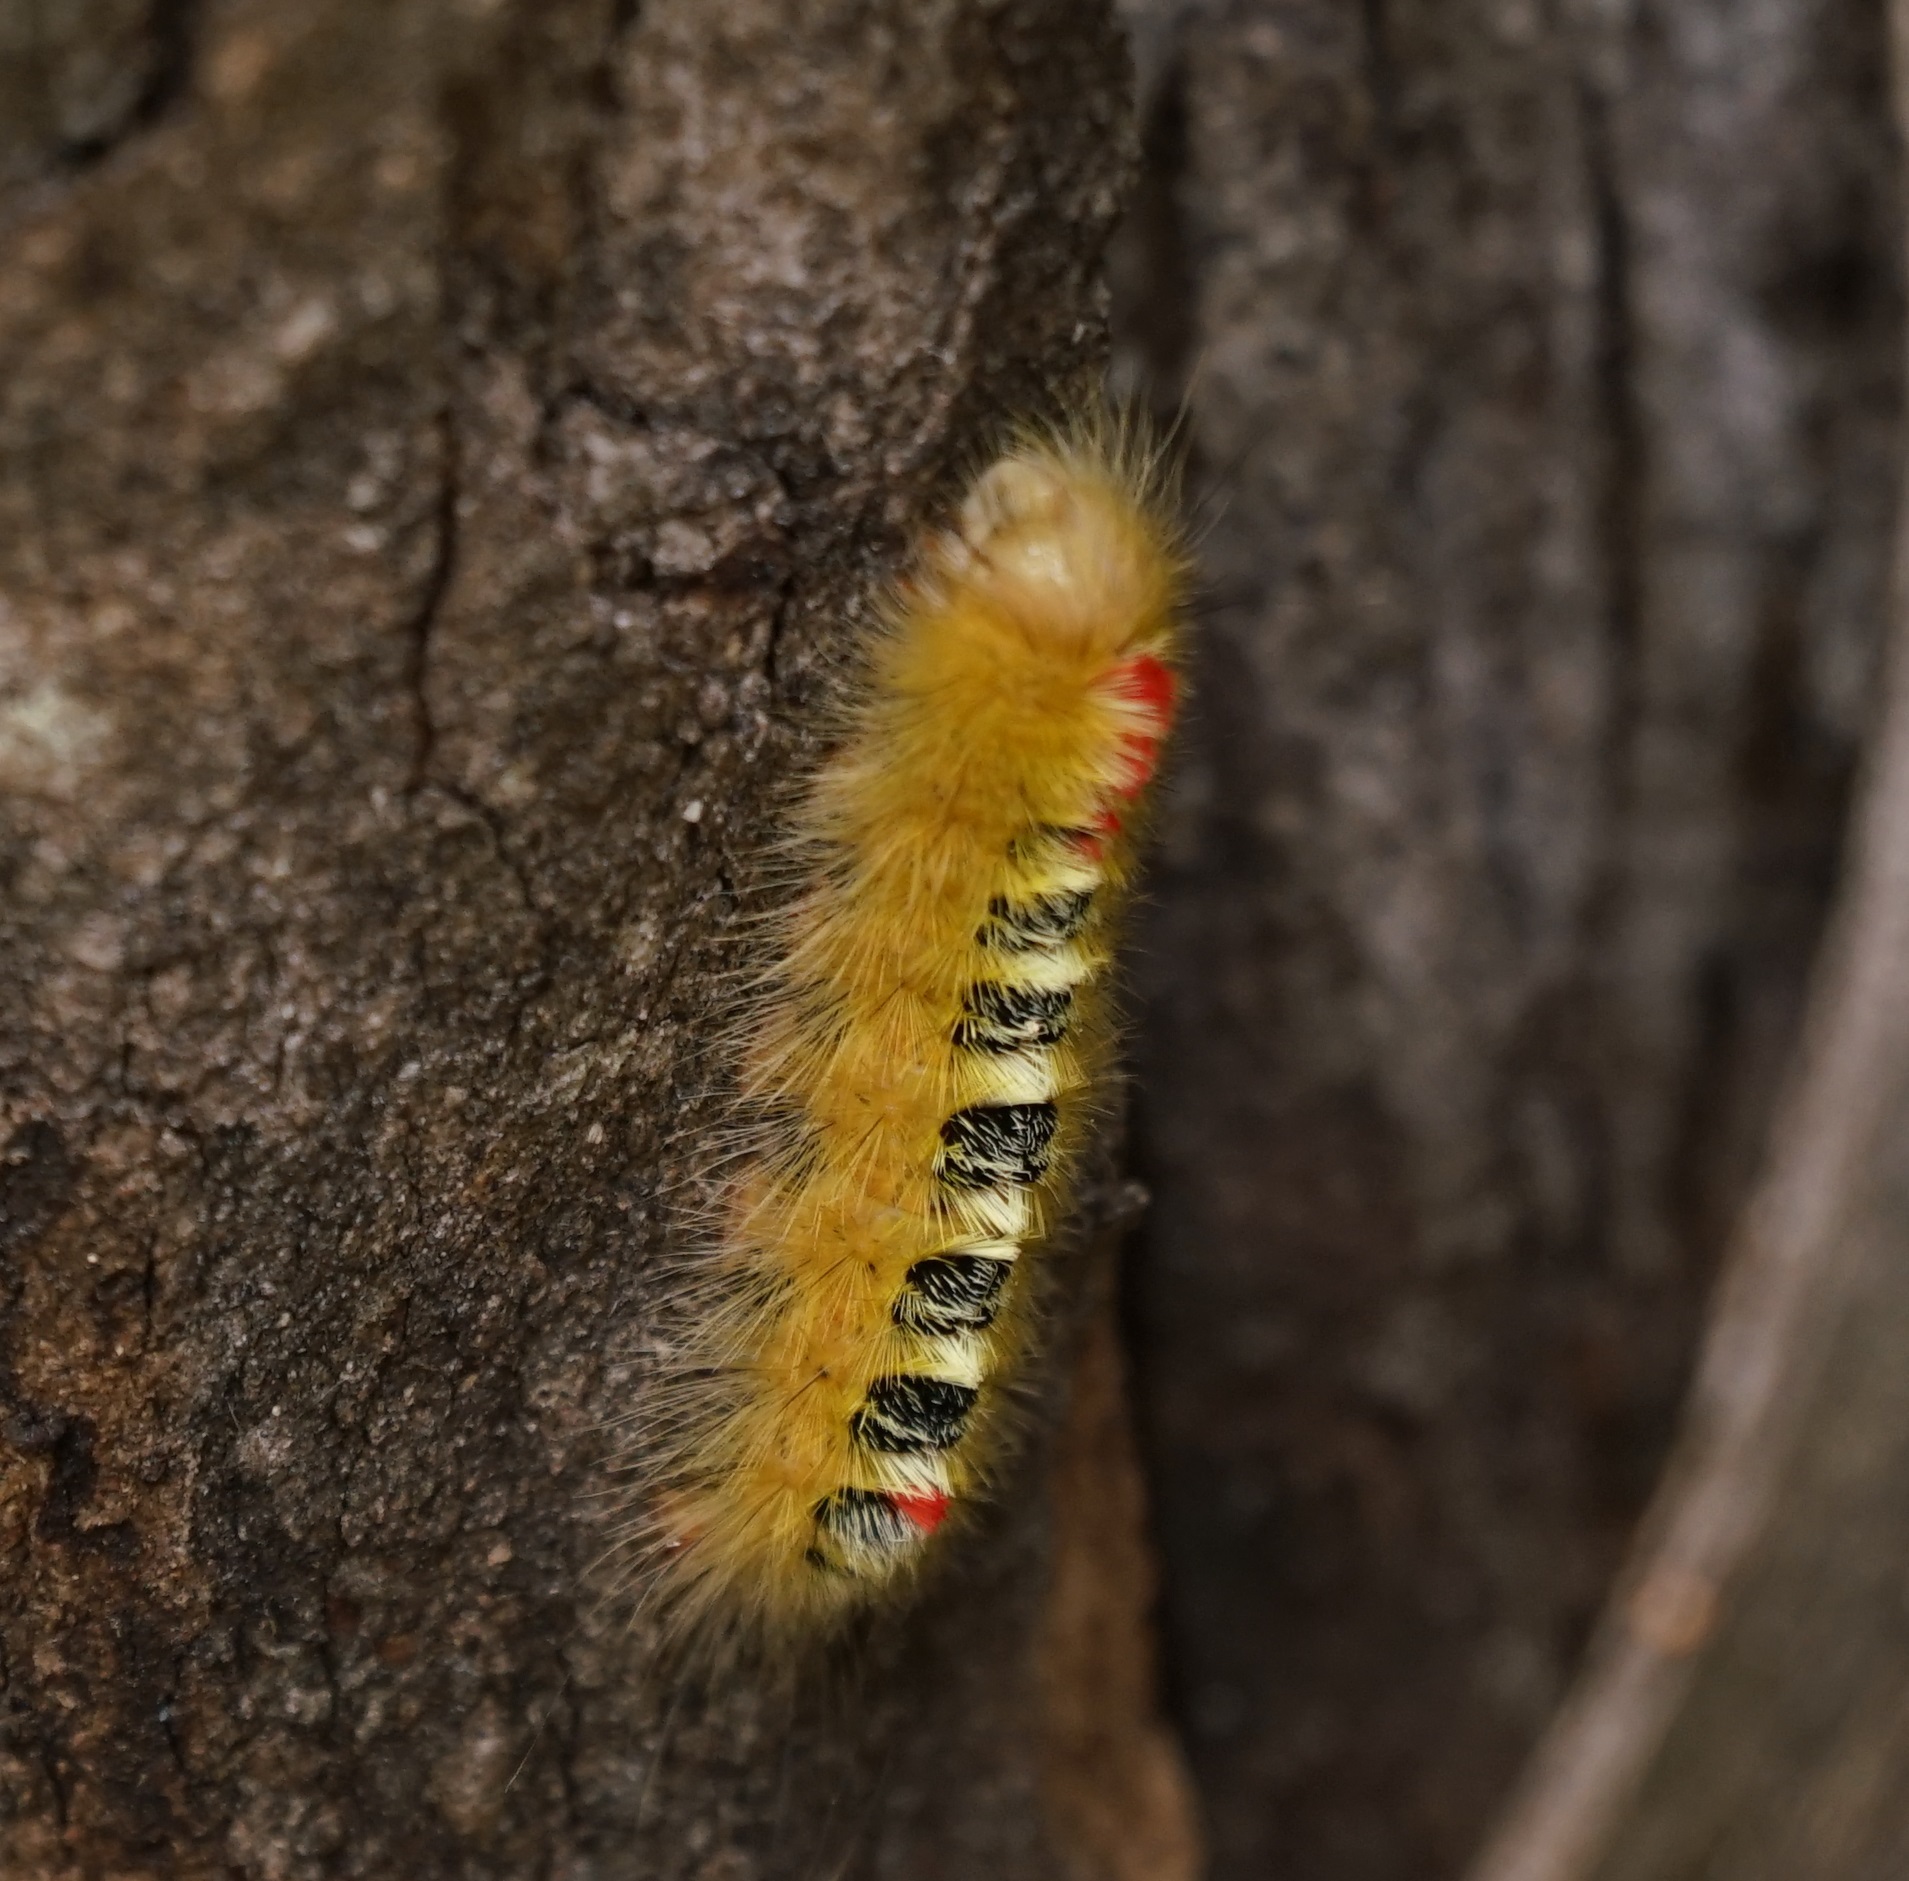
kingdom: Animalia
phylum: Arthropoda
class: Insecta
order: Lepidoptera
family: Notodontidae
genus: Trichiocercus
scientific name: Trichiocercus sparshalli
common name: Long-tailed satin
